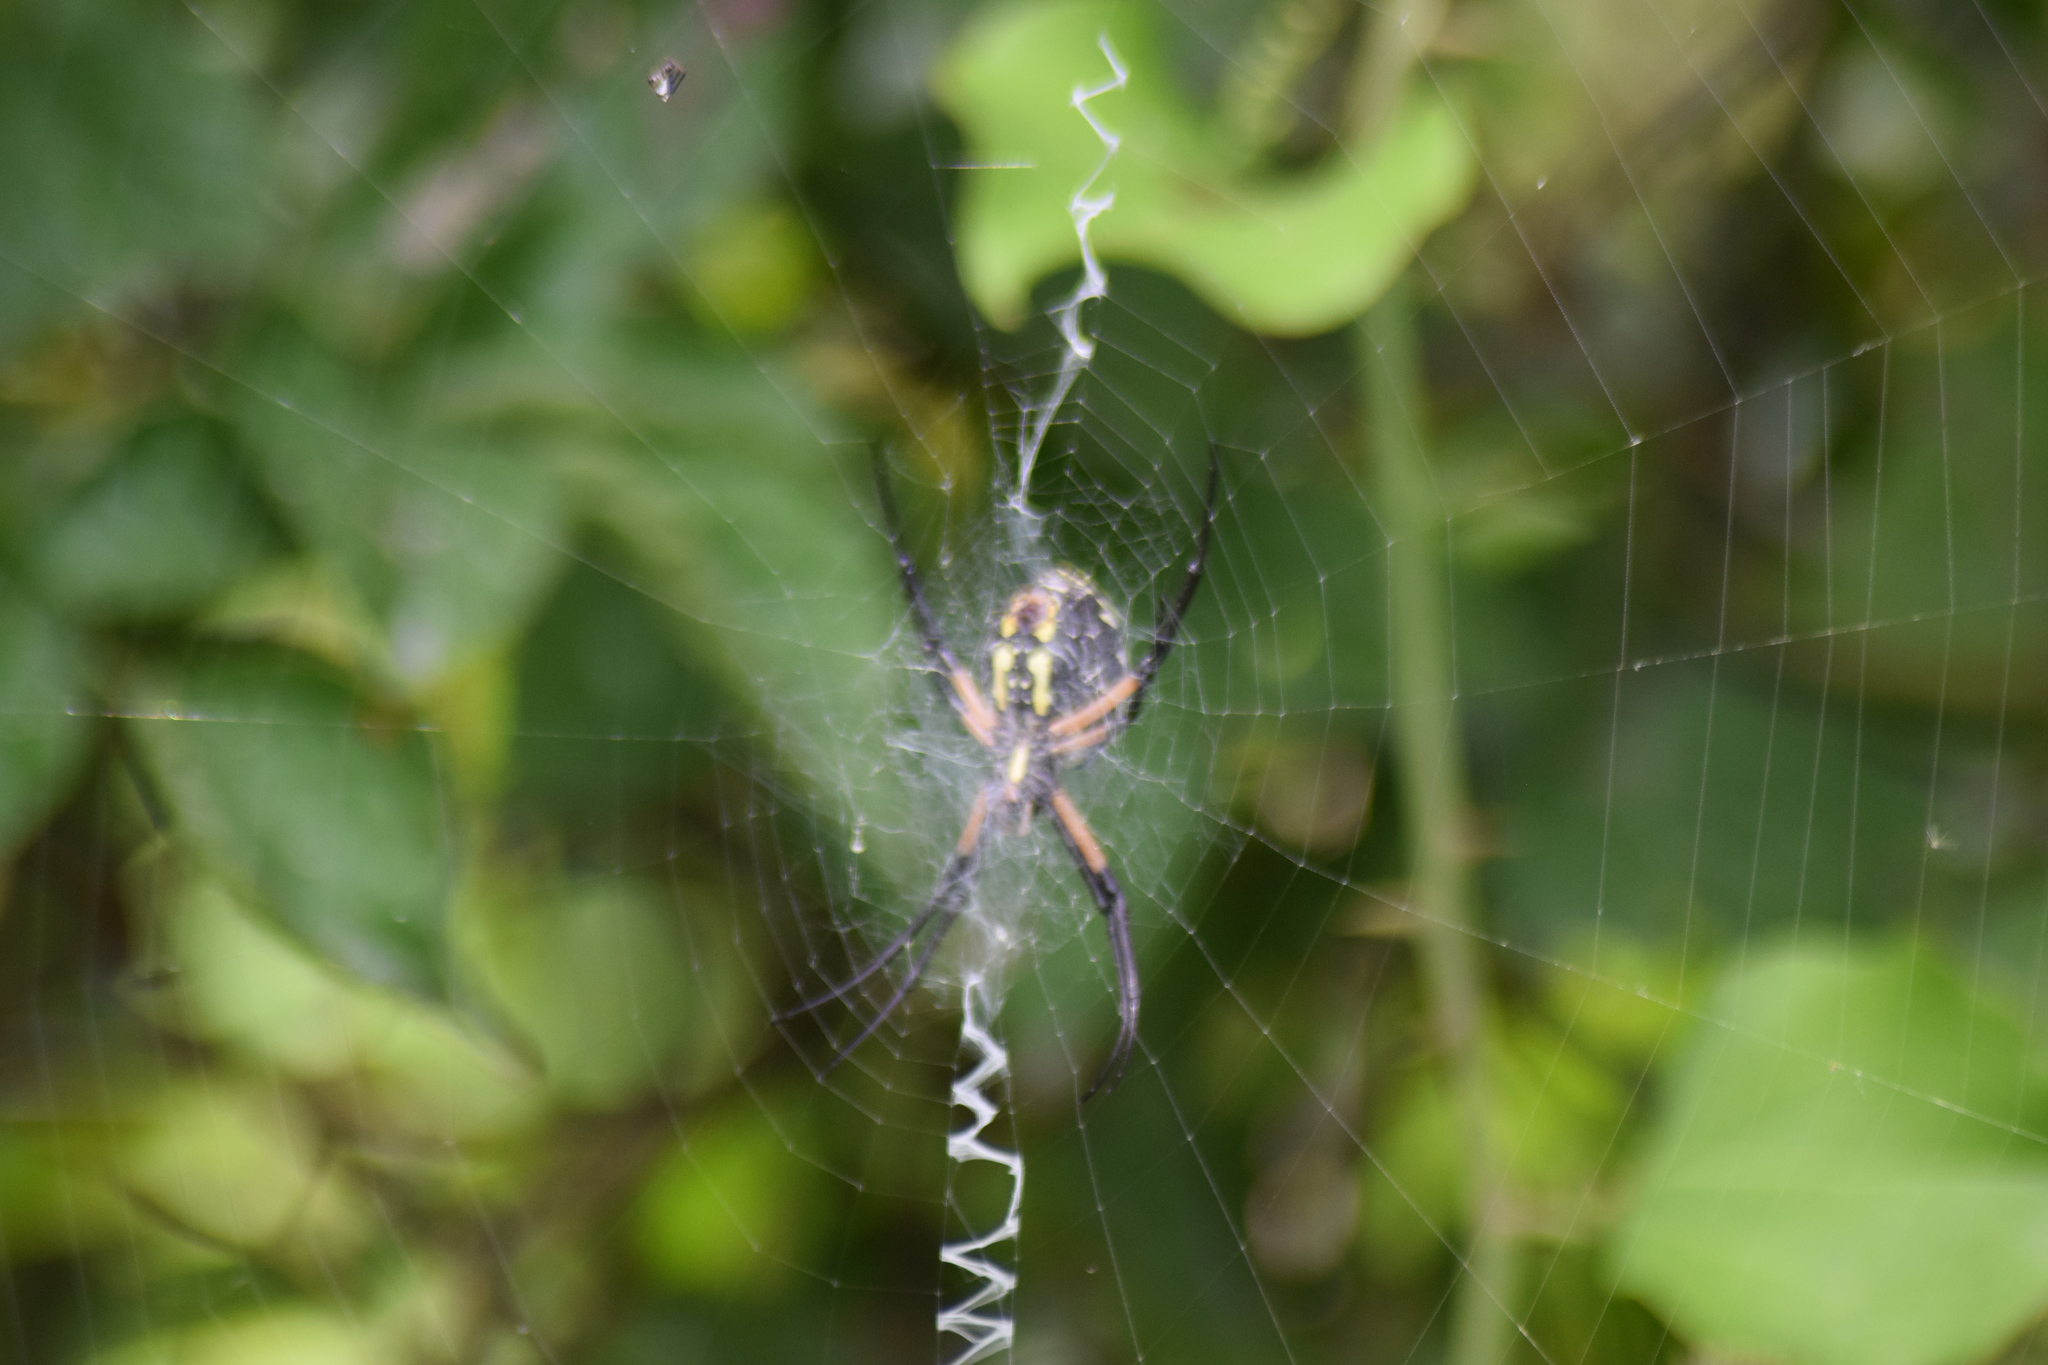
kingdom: Animalia
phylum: Arthropoda
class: Arachnida
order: Araneae
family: Araneidae
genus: Argiope
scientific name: Argiope aurantia
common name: Orb weavers
